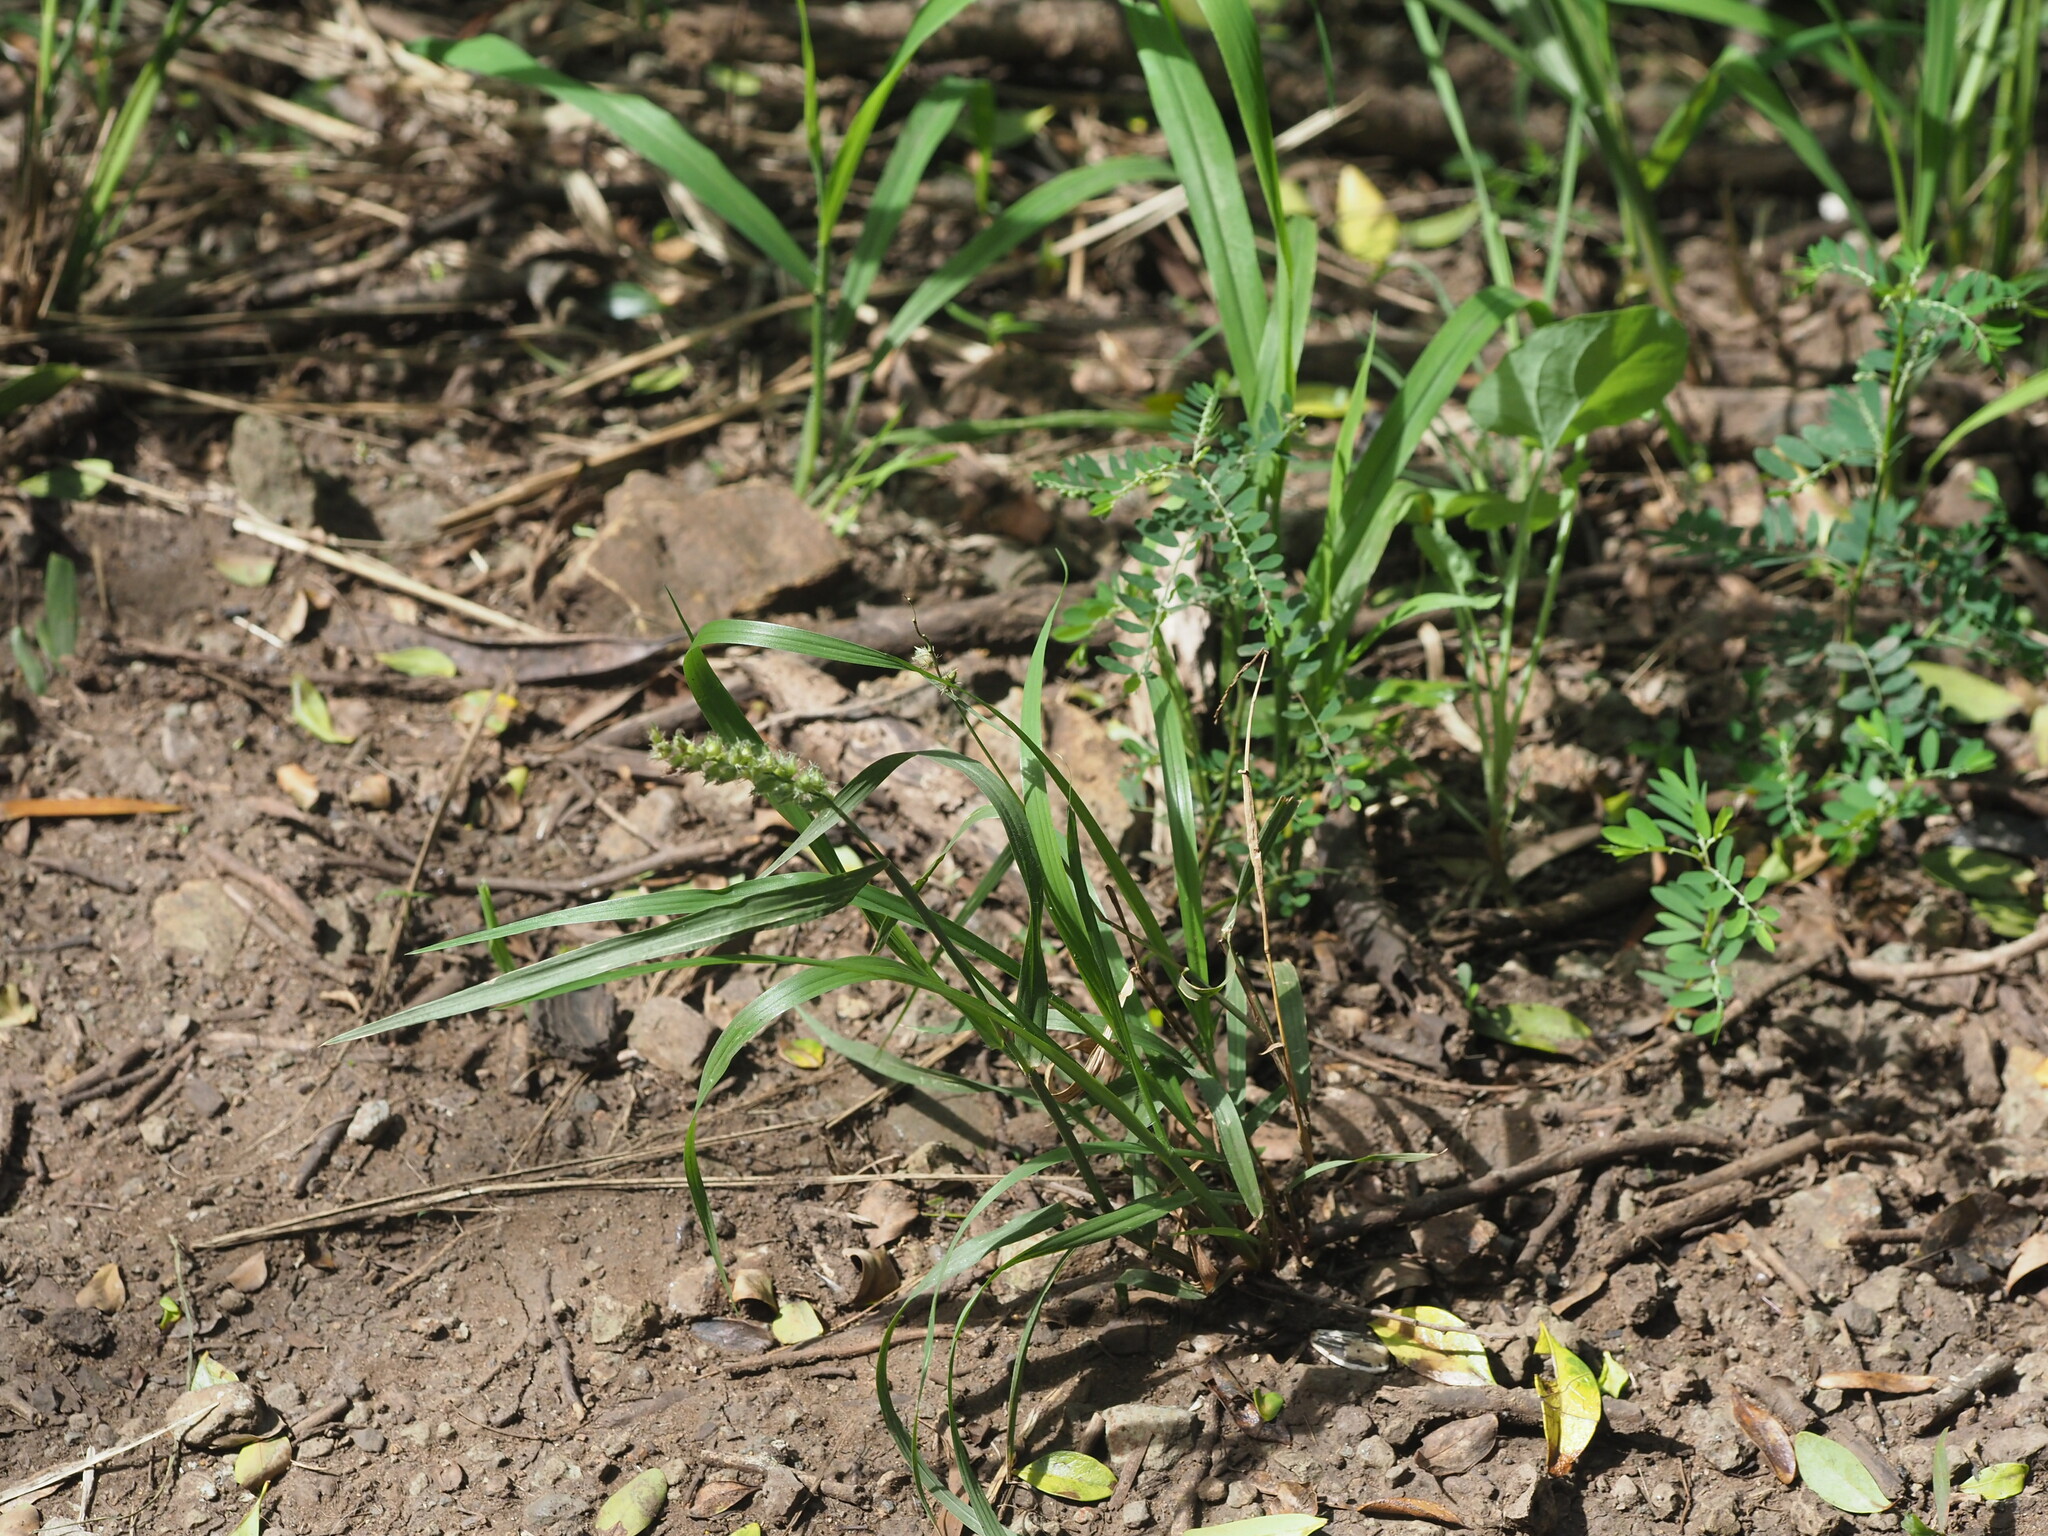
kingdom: Plantae
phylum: Tracheophyta
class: Liliopsida
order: Poales
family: Poaceae
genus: Cenchrus
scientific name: Cenchrus echinatus
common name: Southern sandbur
